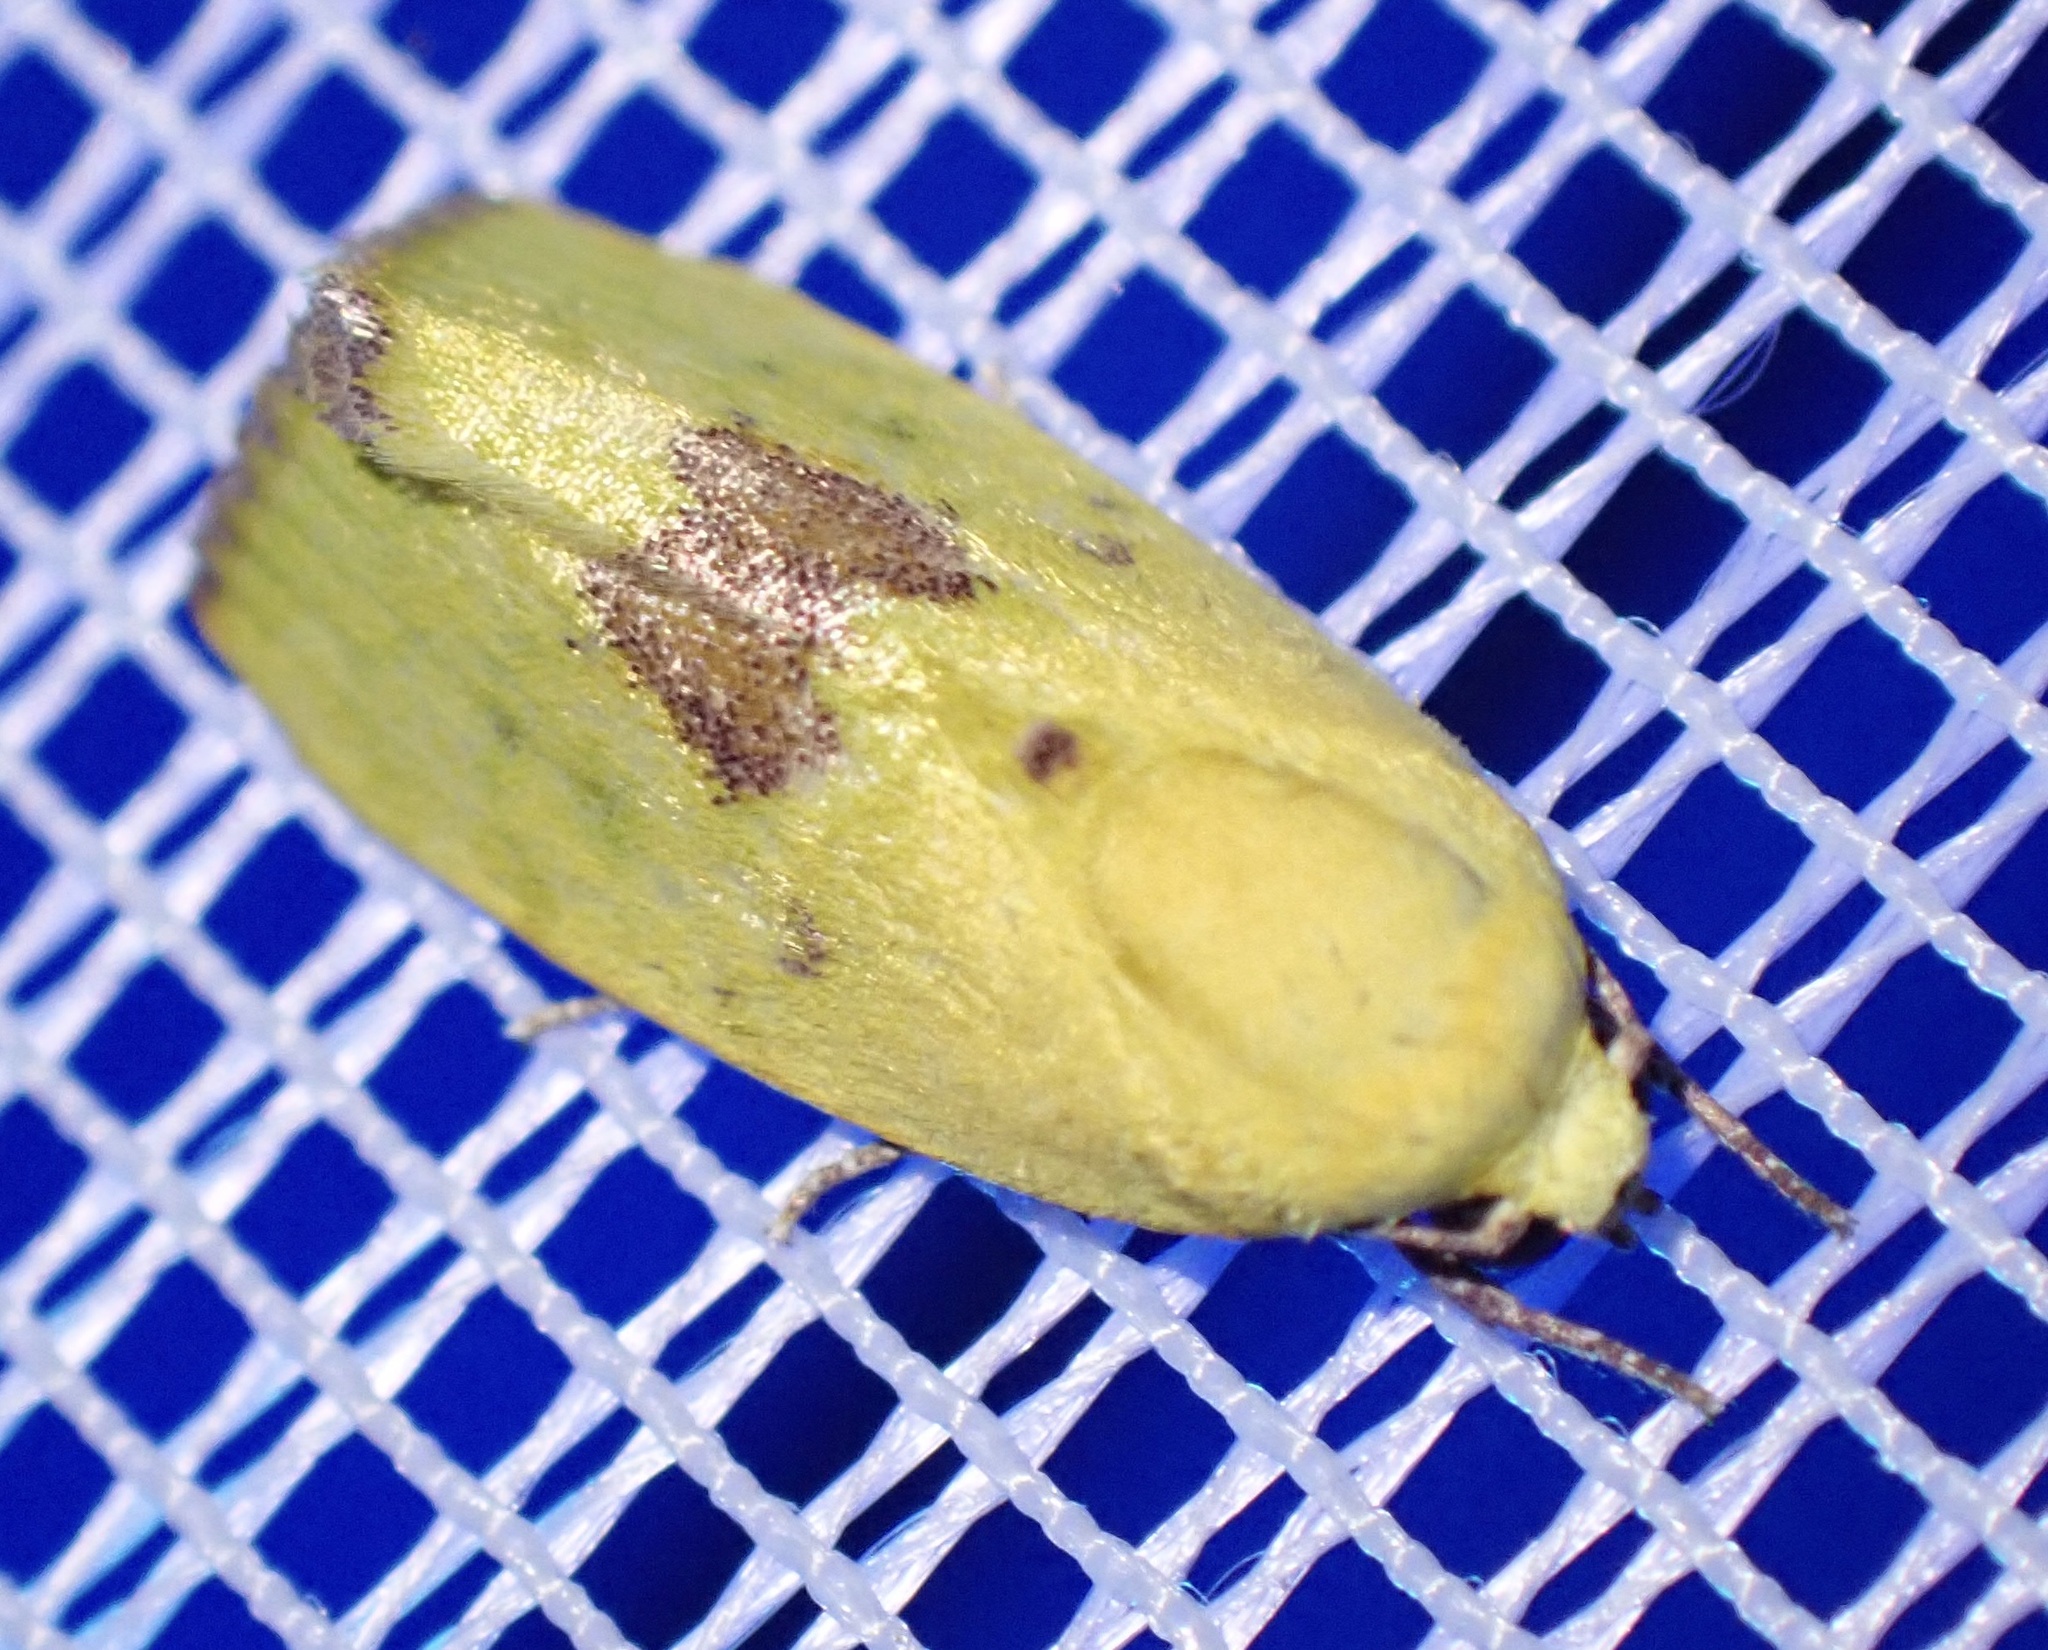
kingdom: Animalia
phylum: Arthropoda
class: Insecta
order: Lepidoptera
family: Nolidae
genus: Earias
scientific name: Earias biplaga
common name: Spiny bollworm
